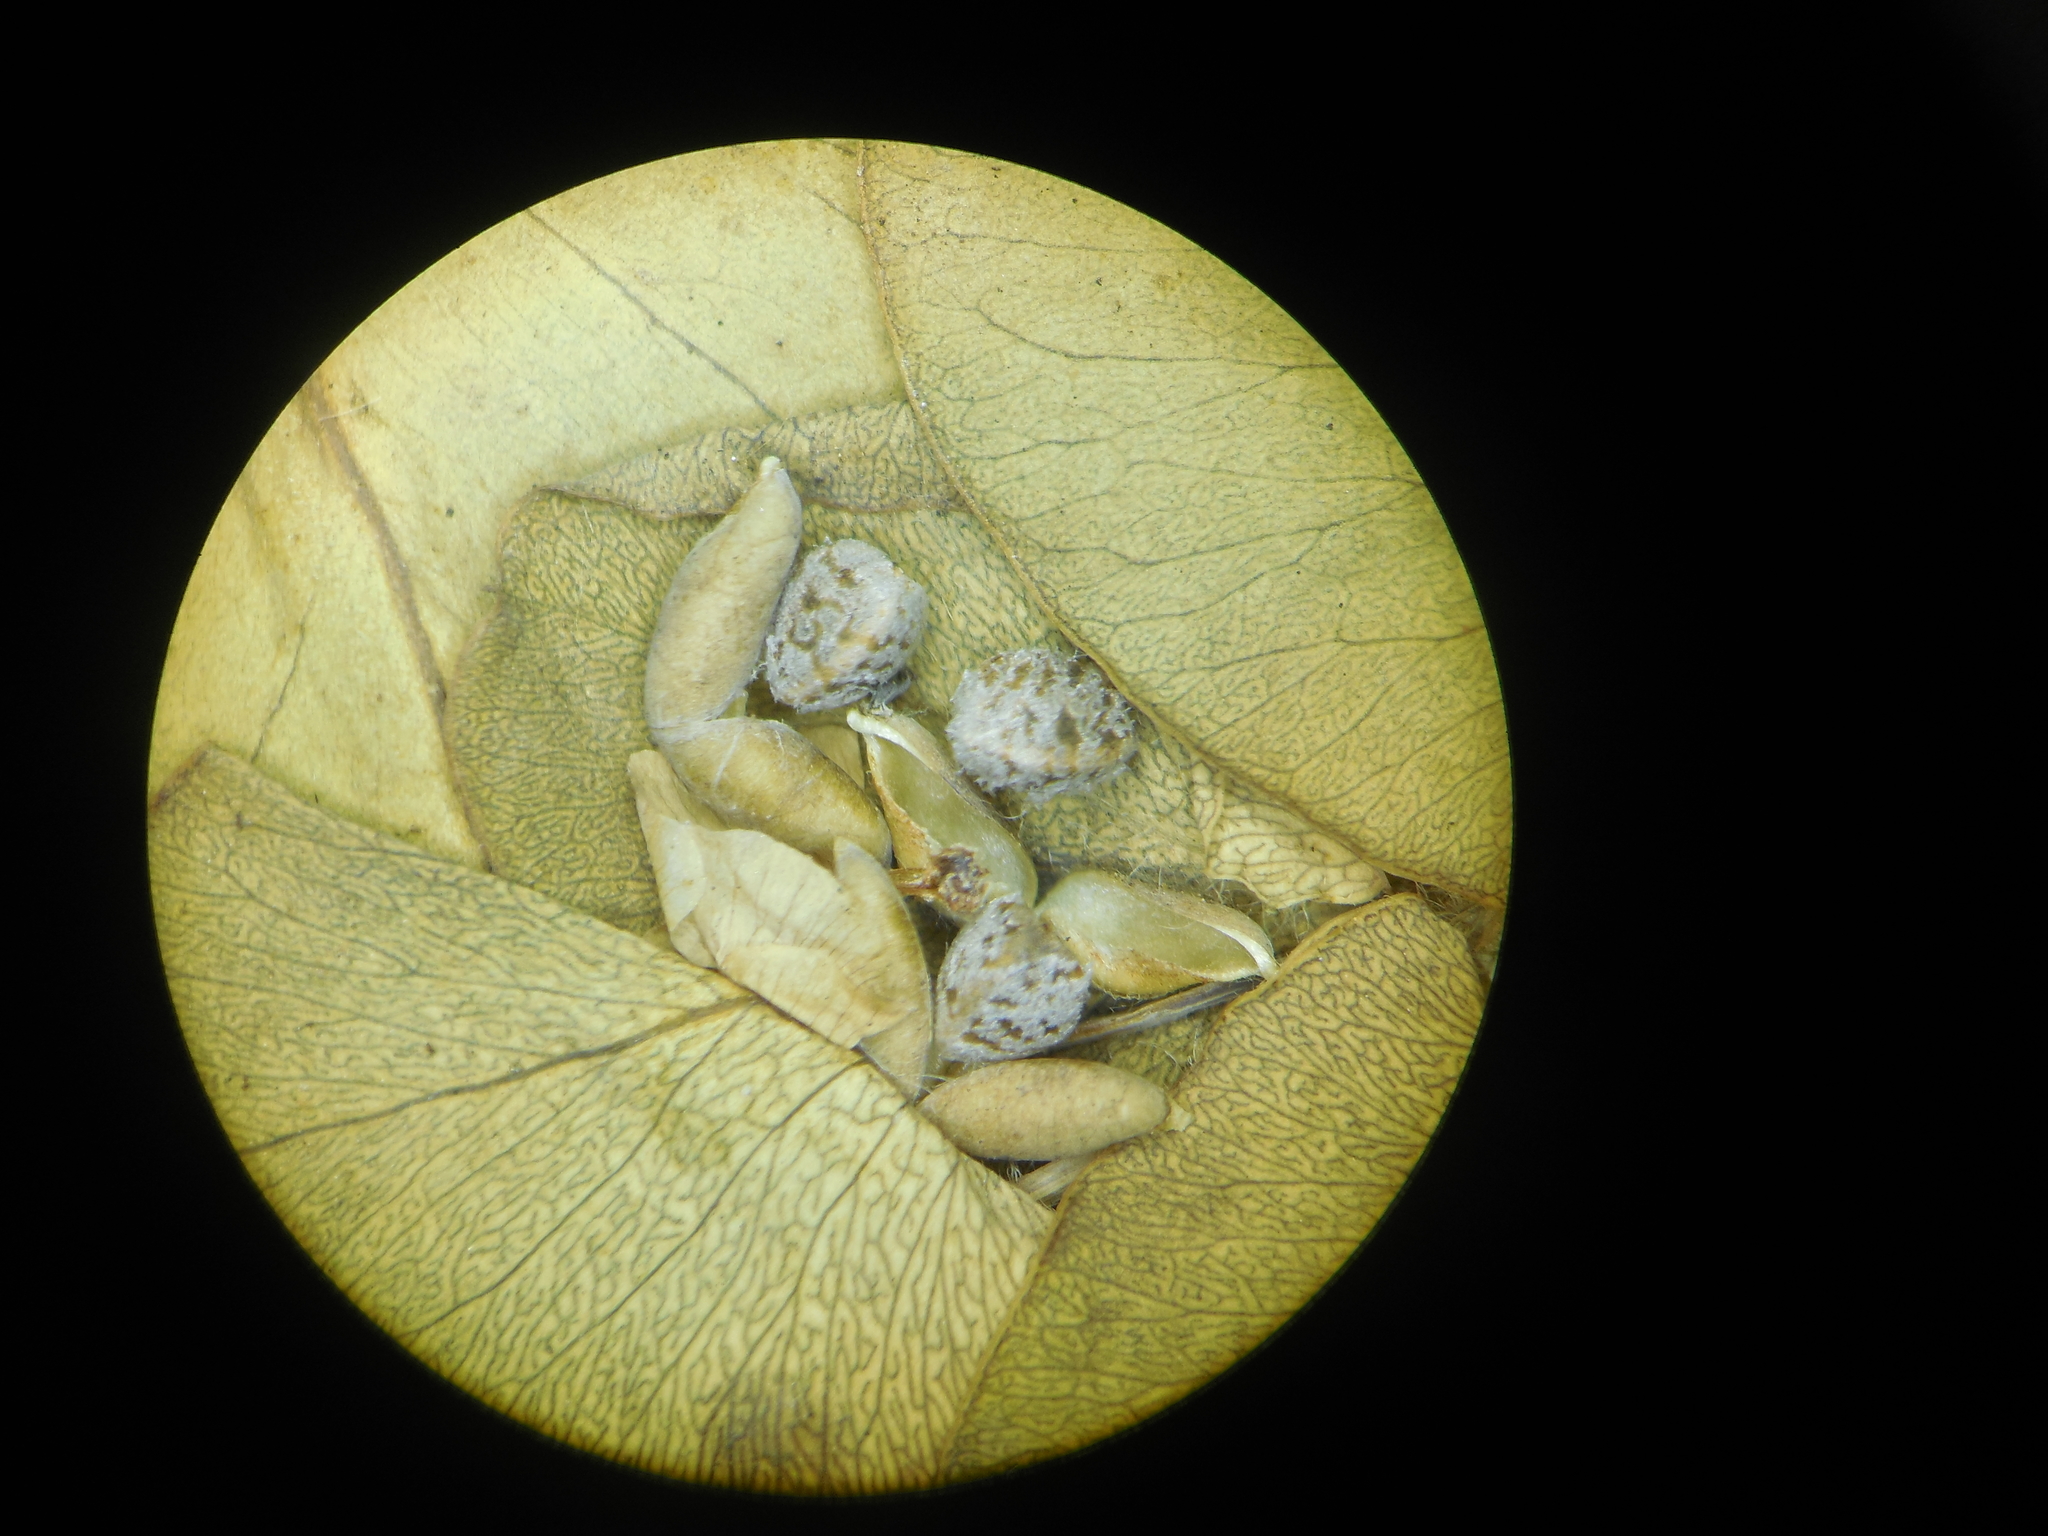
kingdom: Plantae
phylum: Tracheophyta
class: Magnoliopsida
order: Malpighiales
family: Euphorbiaceae
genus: Euphorbia
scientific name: Euphorbia pycnostegia
